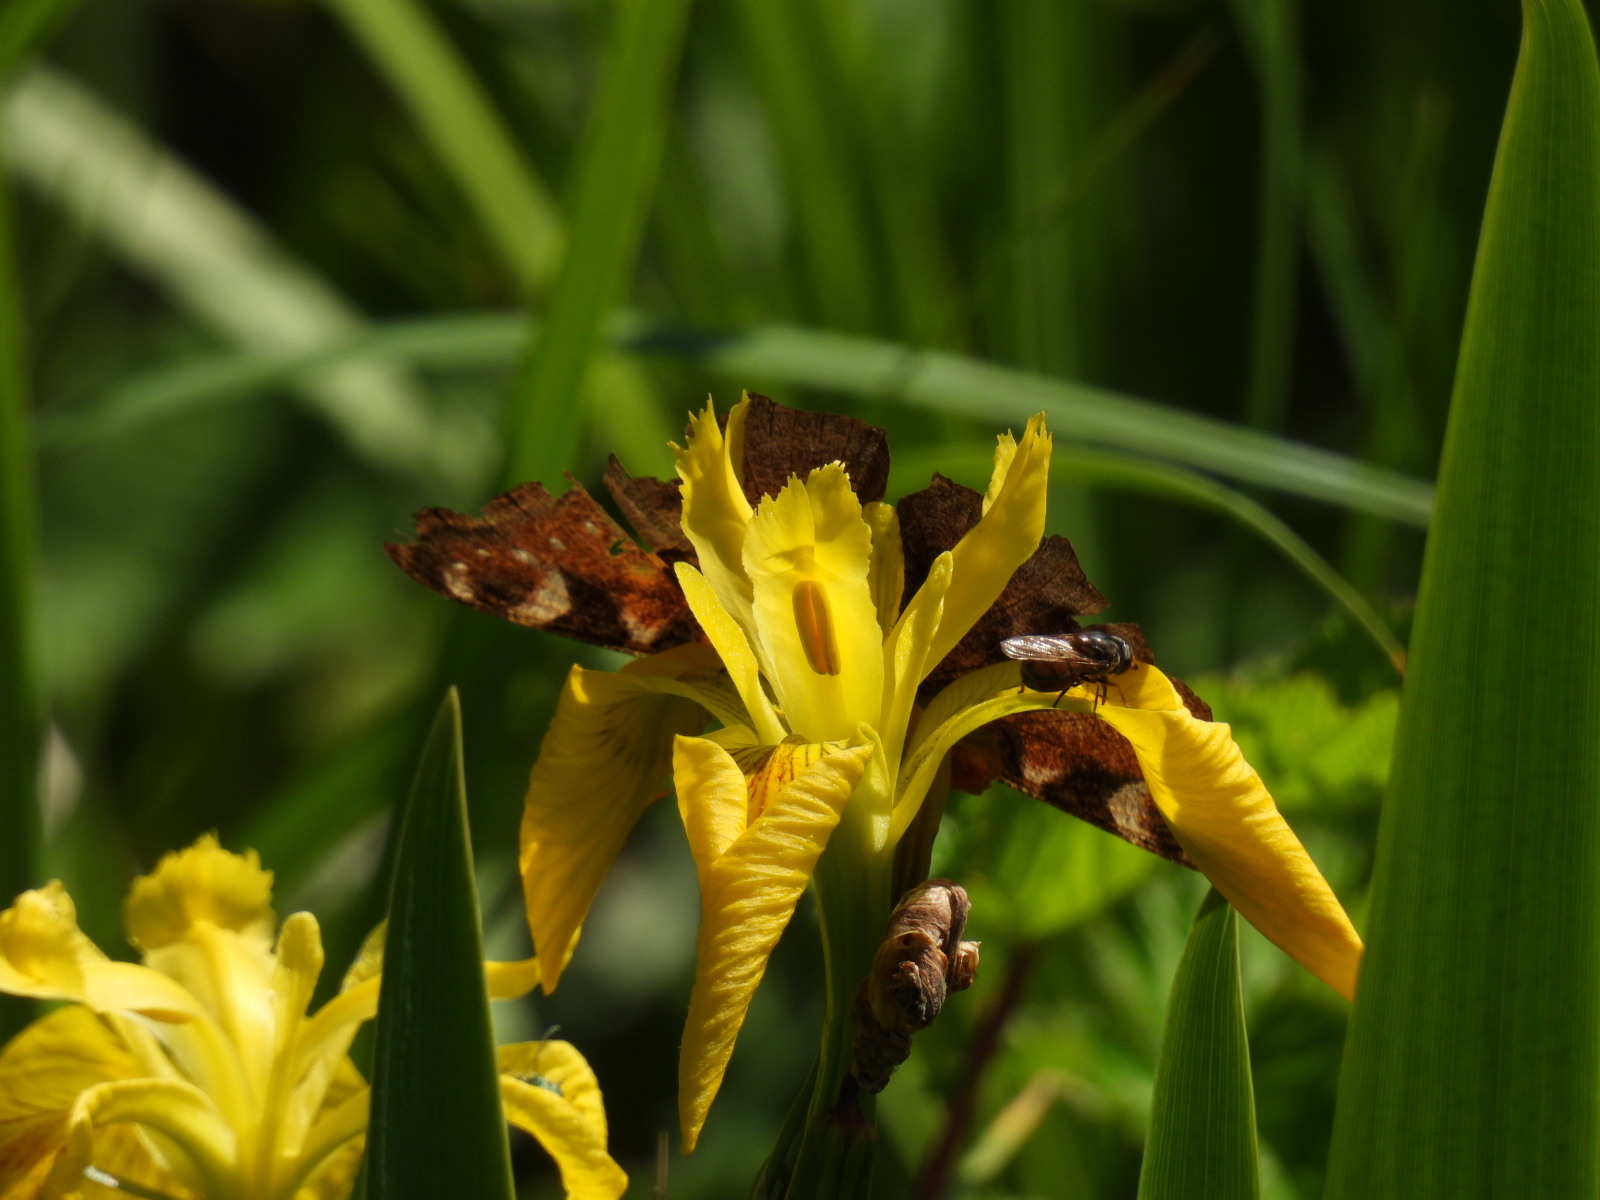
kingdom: Animalia
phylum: Arthropoda
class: Insecta
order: Lepidoptera
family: Nymphalidae
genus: Aglais
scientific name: Aglais io
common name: Peacock
